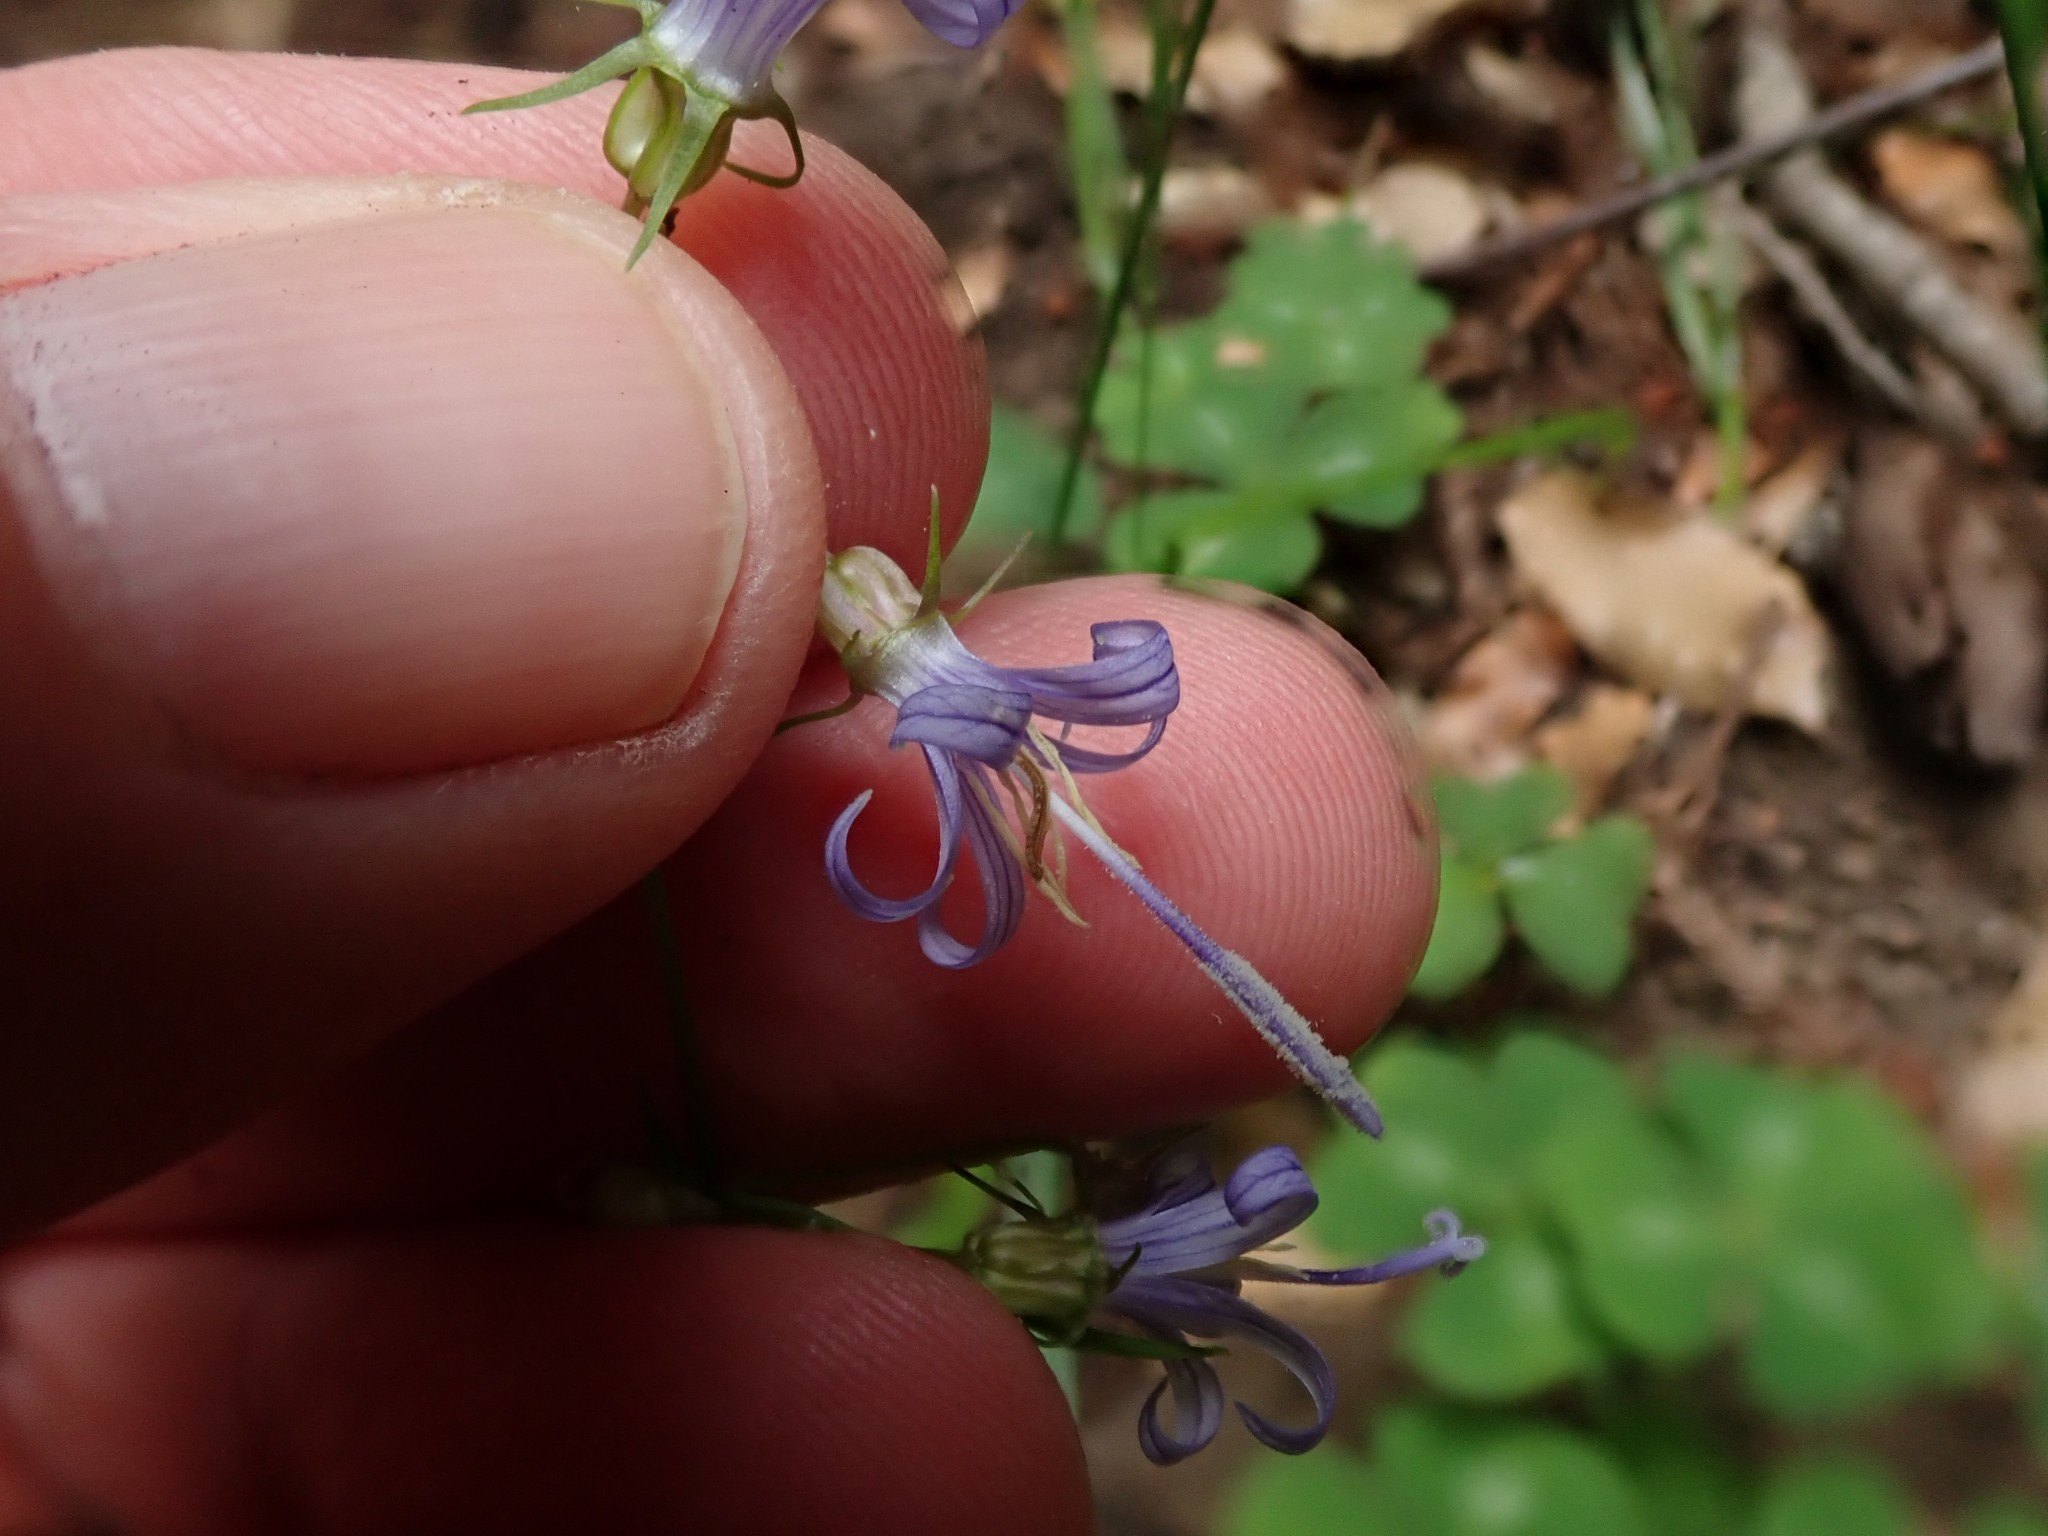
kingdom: Plantae
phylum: Tracheophyta
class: Magnoliopsida
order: Asterales
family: Campanulaceae
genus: Smithiastrum
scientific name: Smithiastrum prenanthoides
